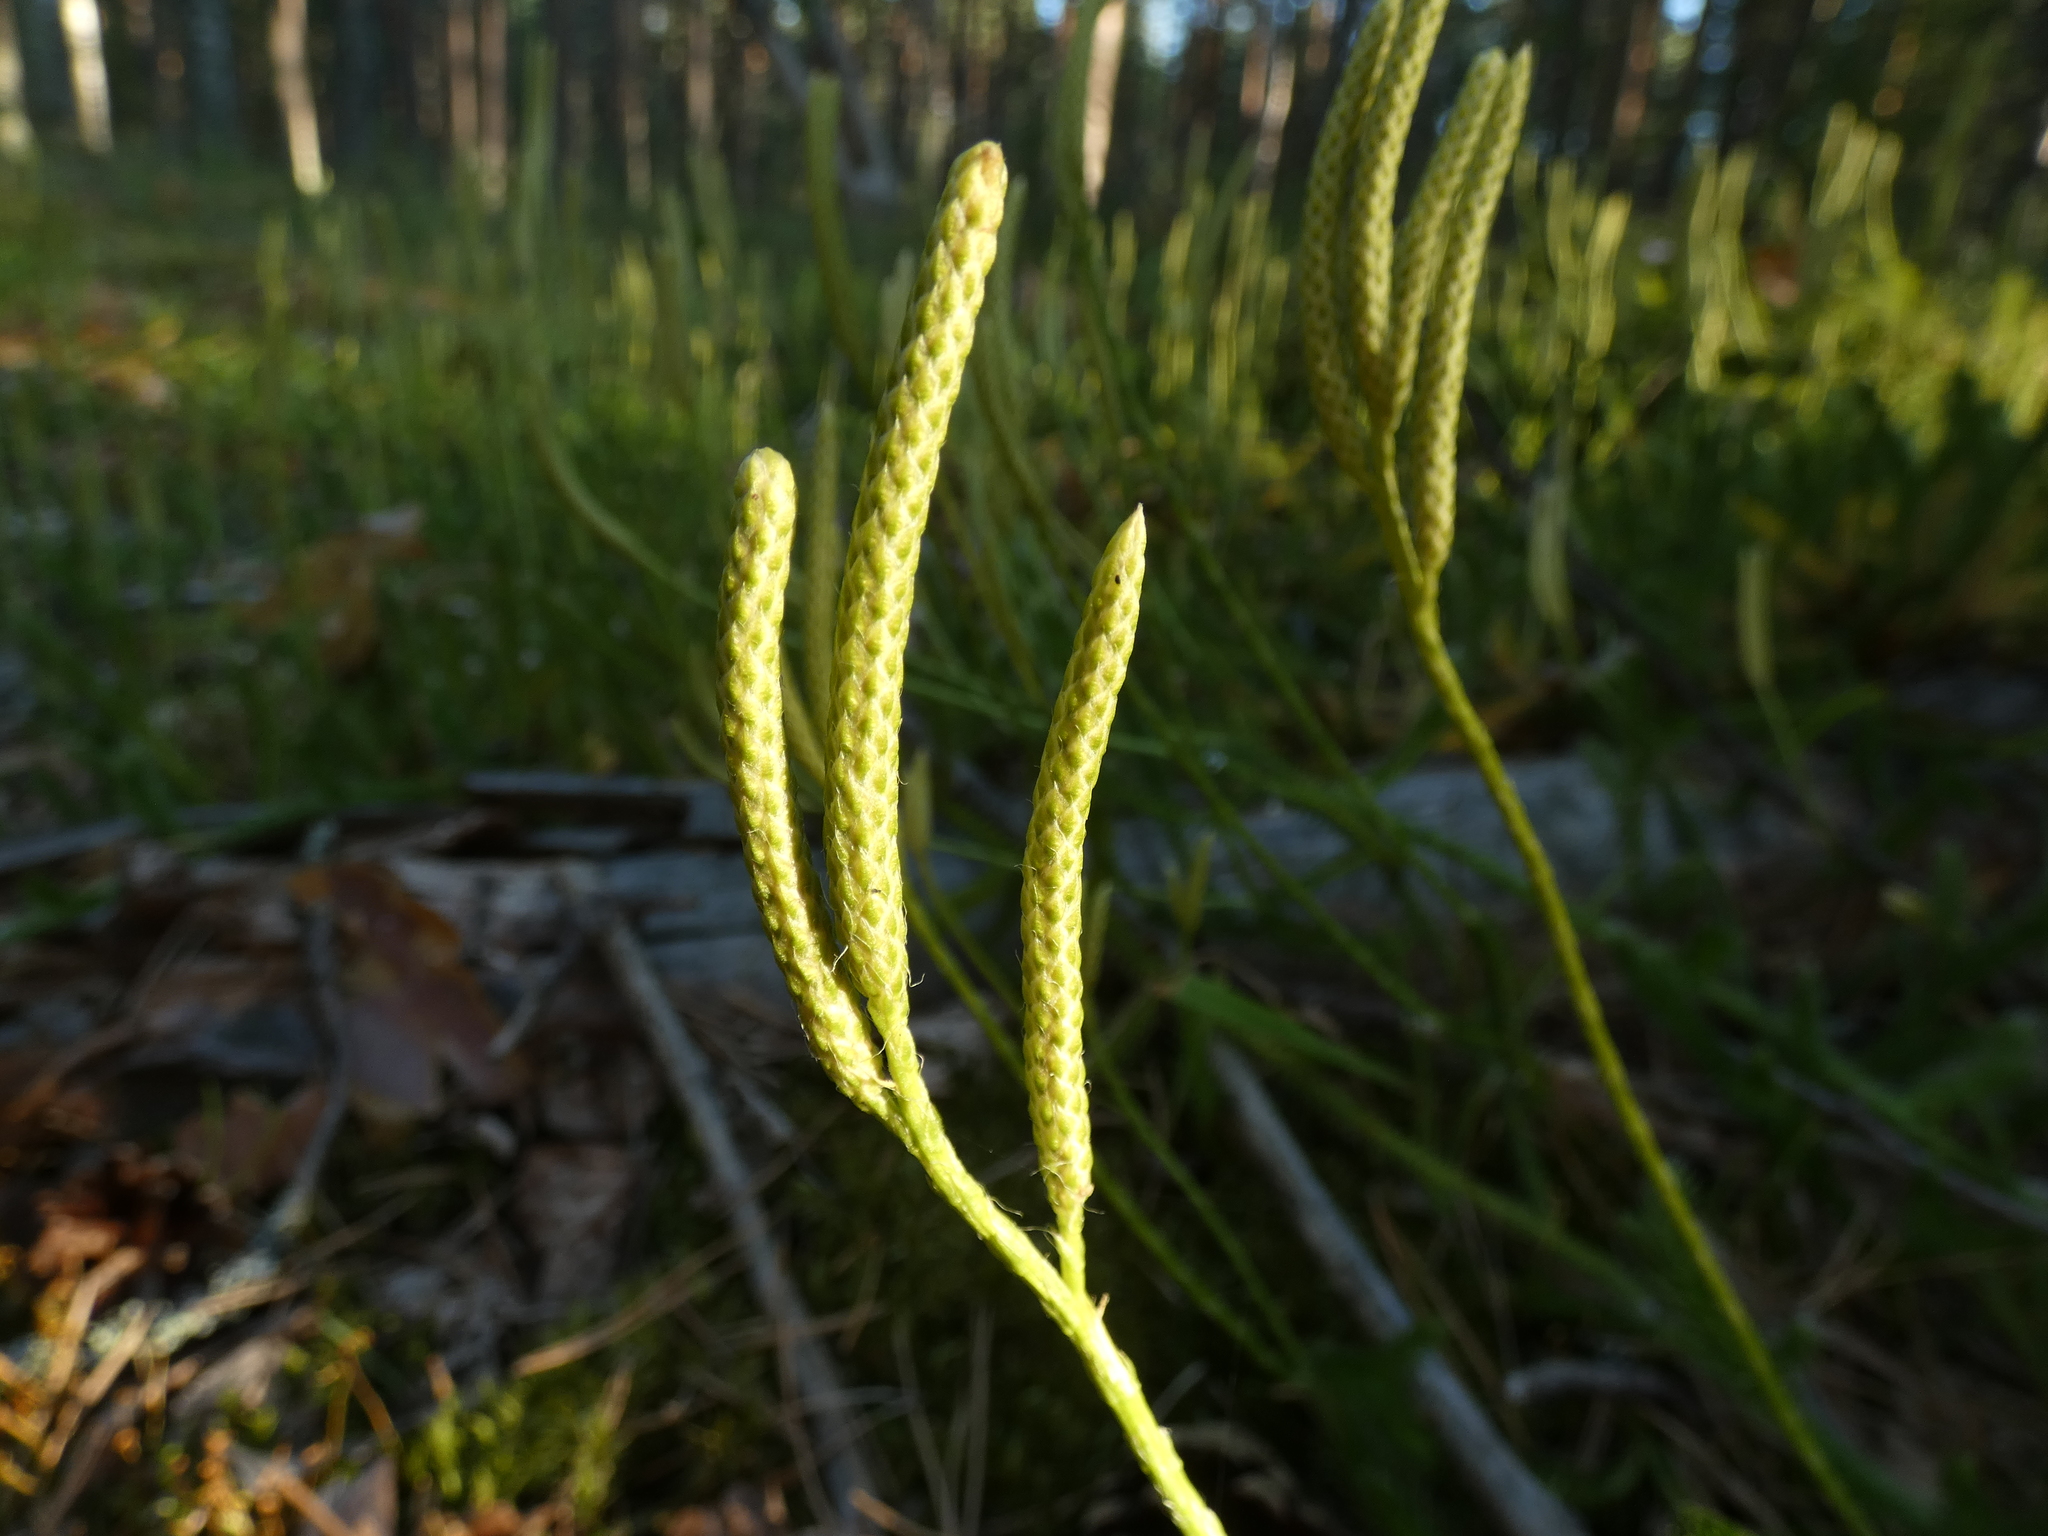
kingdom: Plantae
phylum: Tracheophyta
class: Lycopodiopsida
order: Lycopodiales
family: Lycopodiaceae
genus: Lycopodium
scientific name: Lycopodium clavatum
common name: Stag's-horn clubmoss
